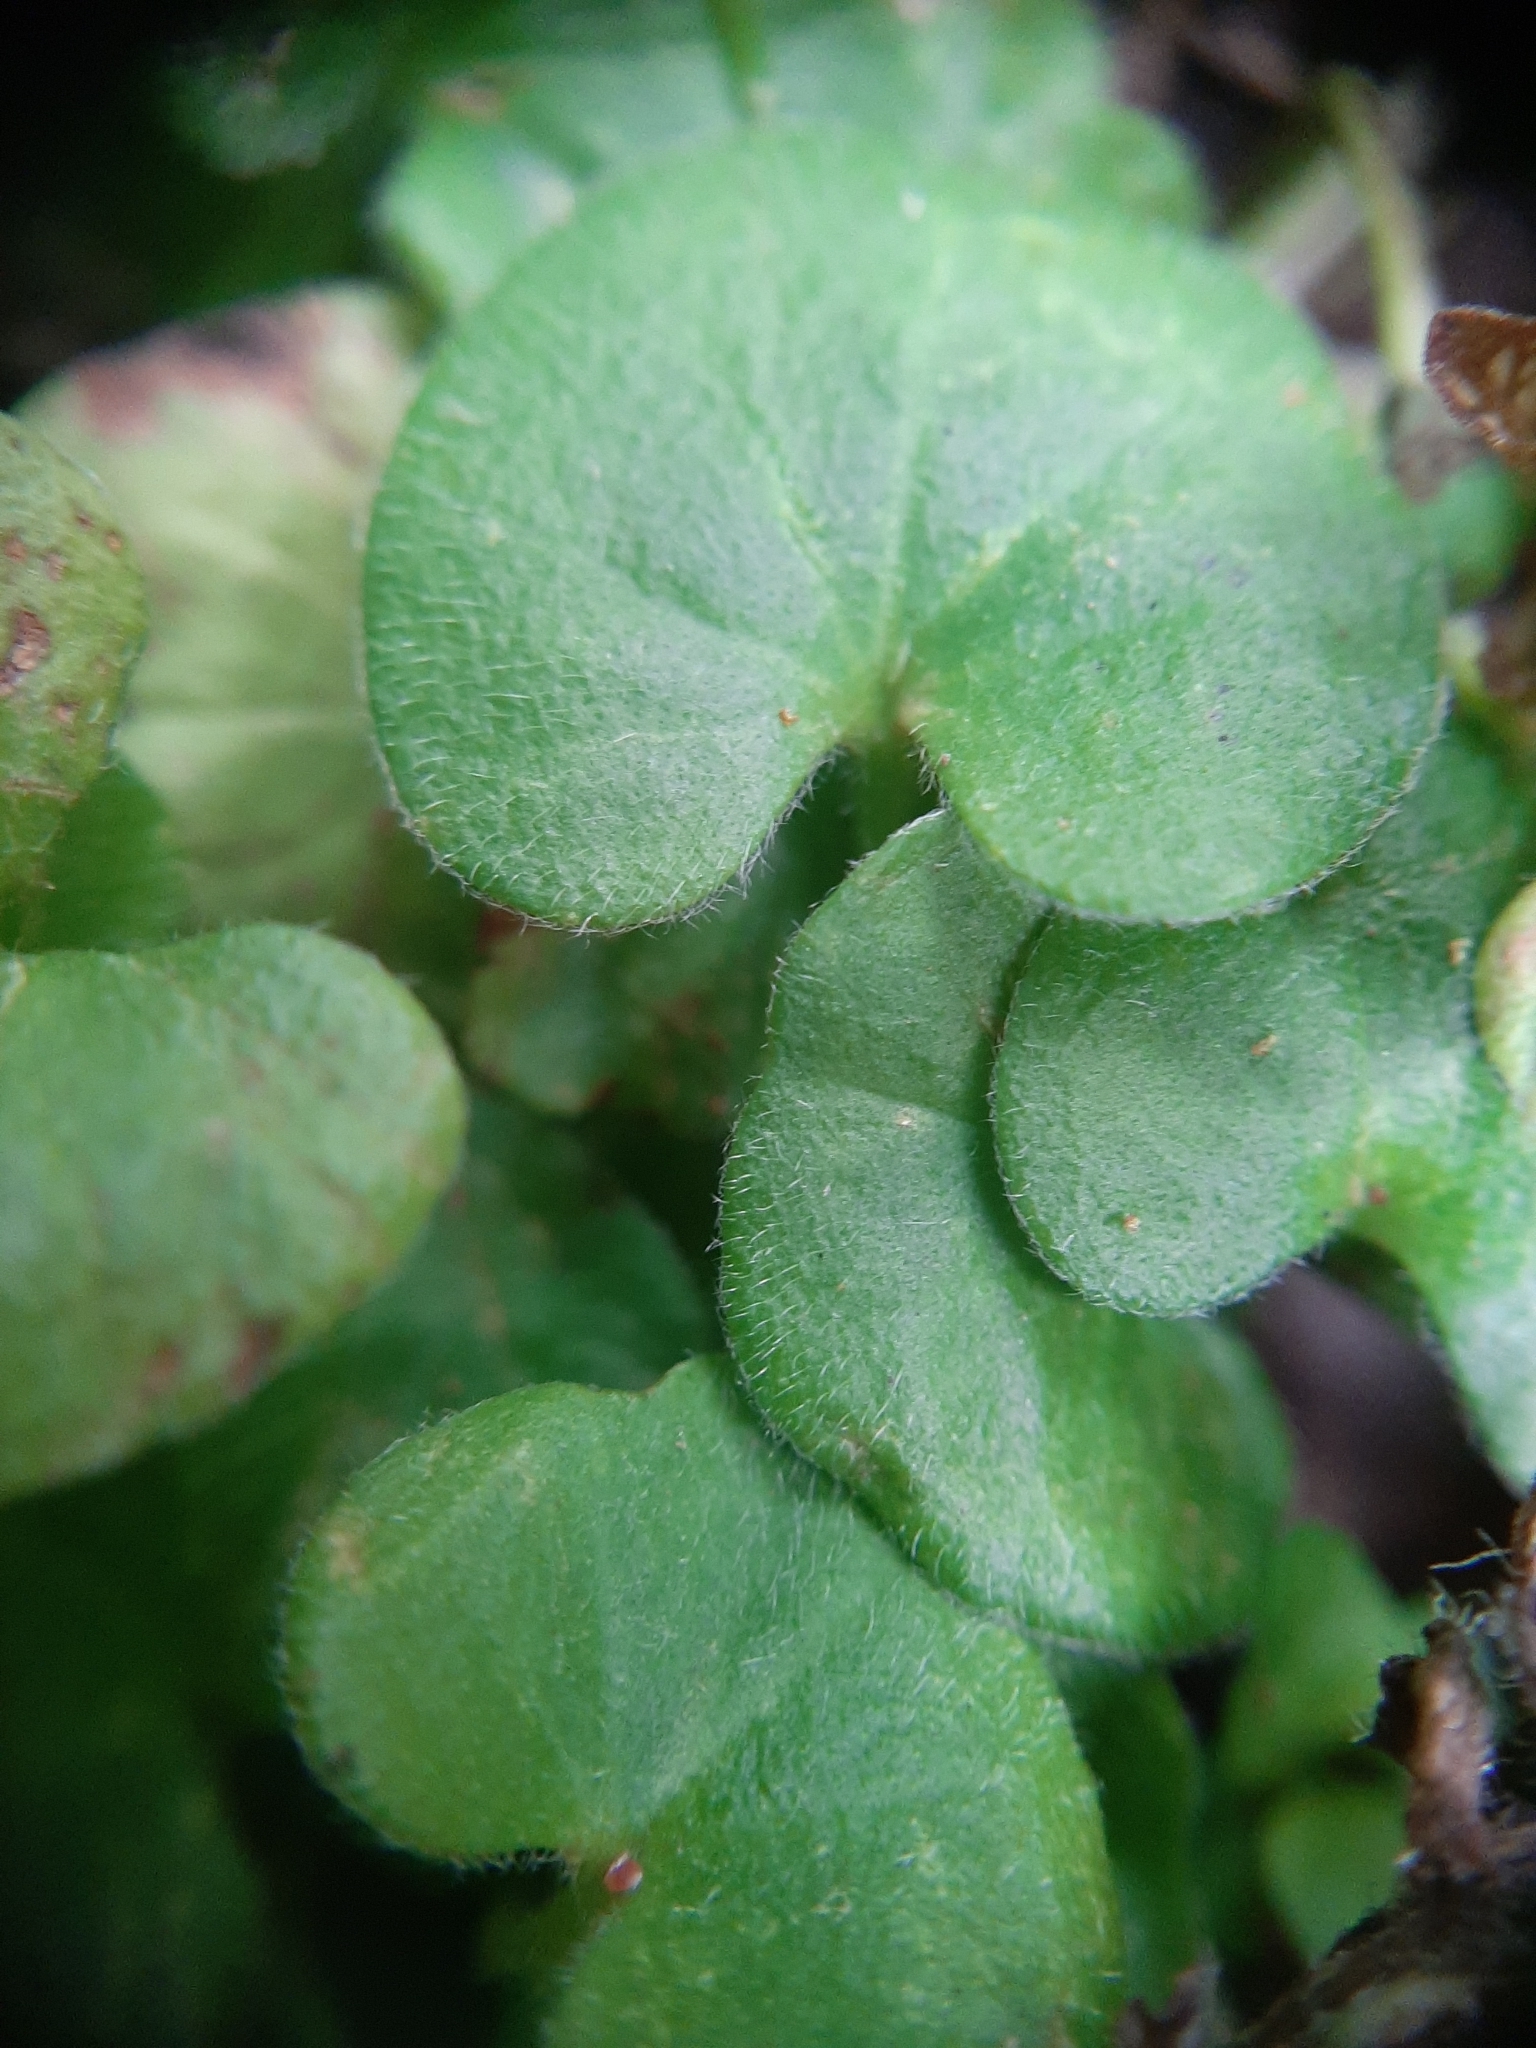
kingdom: Plantae
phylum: Tracheophyta
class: Magnoliopsida
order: Solanales
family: Convolvulaceae
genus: Dichondra
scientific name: Dichondra repens
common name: Kidneyweed
